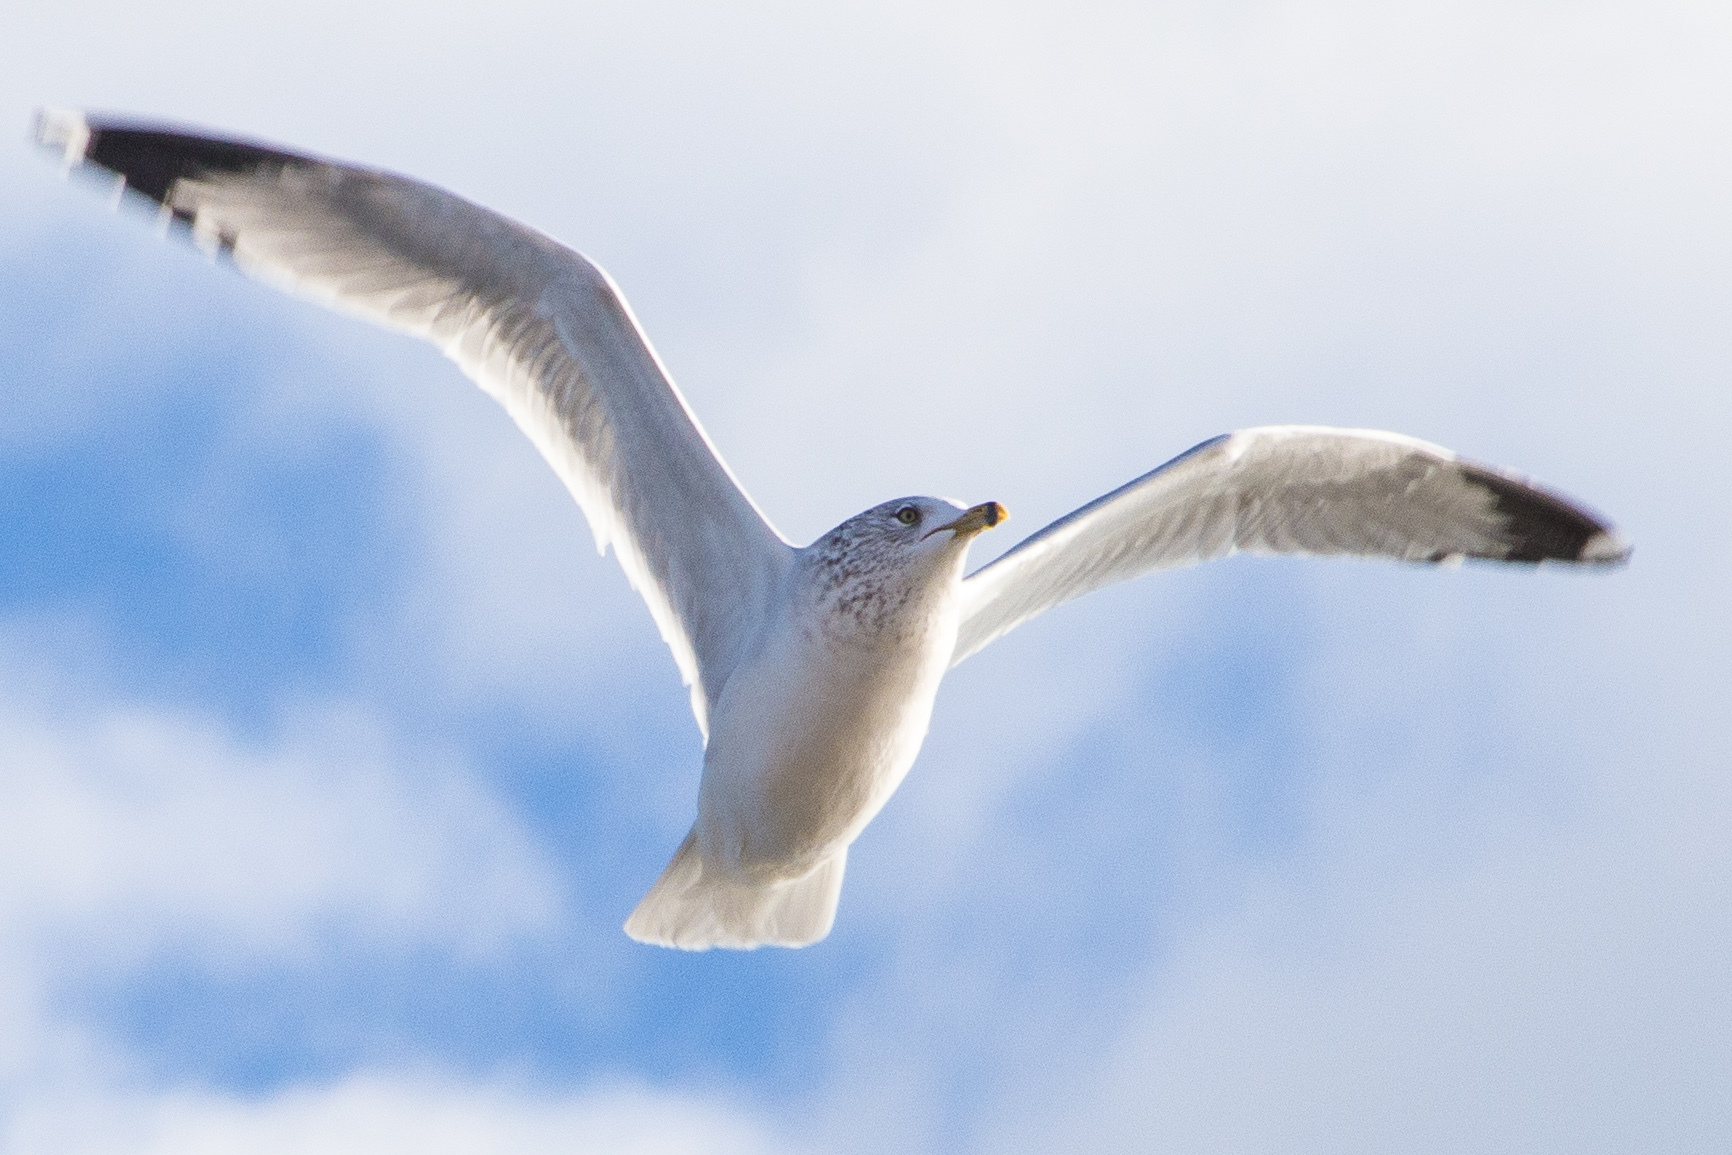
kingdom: Animalia
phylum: Chordata
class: Aves
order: Charadriiformes
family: Laridae
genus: Larus
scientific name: Larus delawarensis
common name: Ring-billed gull
